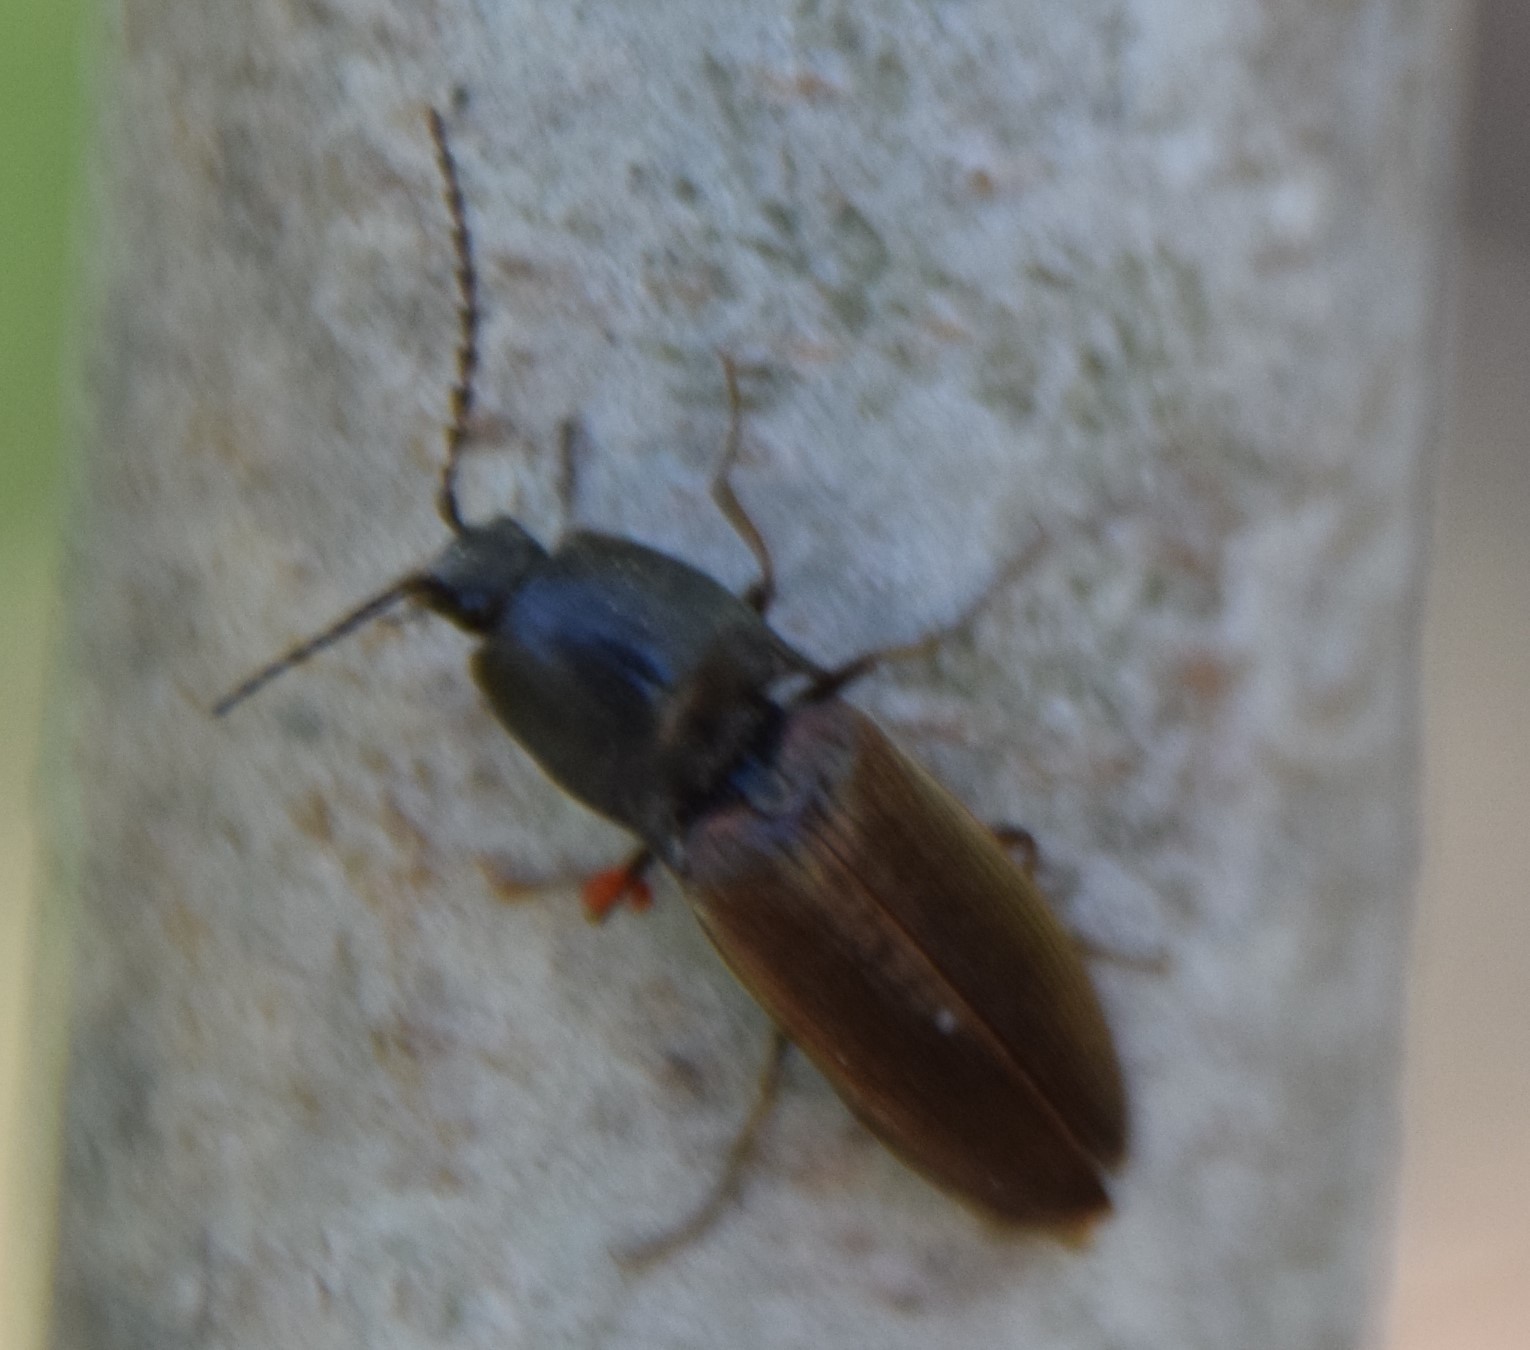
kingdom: Animalia
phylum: Arthropoda
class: Insecta
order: Coleoptera
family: Elateridae
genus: Acteniceromorphus
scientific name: Acteniceromorphus
